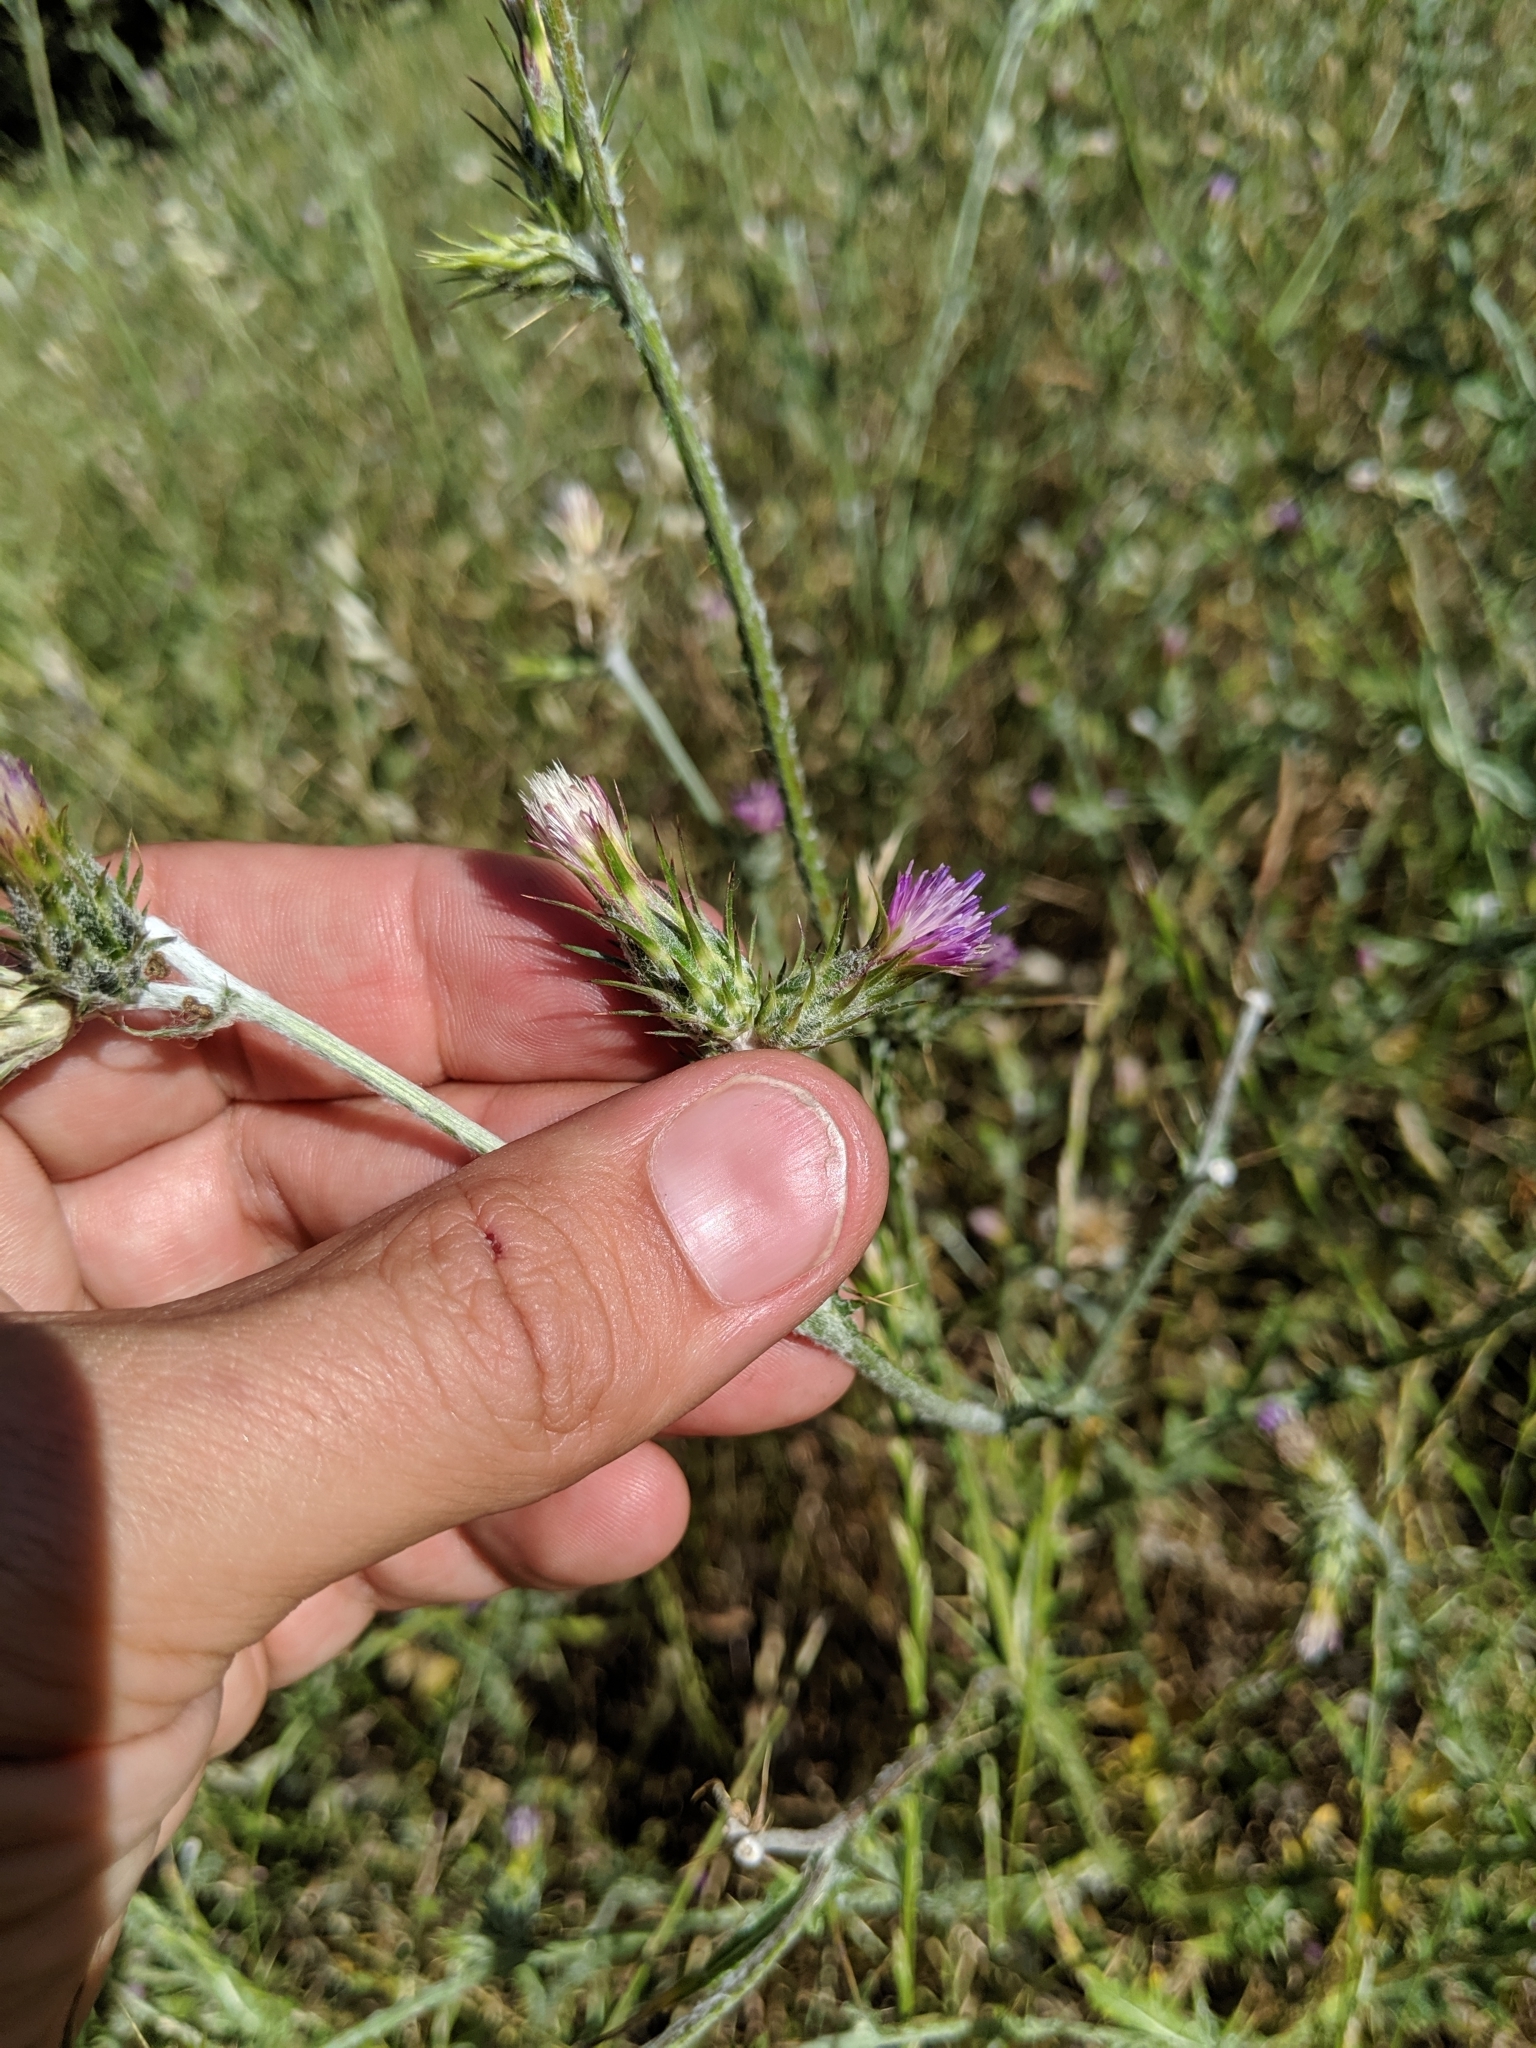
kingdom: Plantae
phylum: Tracheophyta
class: Magnoliopsida
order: Asterales
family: Asteraceae
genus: Carduus
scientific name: Carduus pycnocephalus
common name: Plymouth thistle
